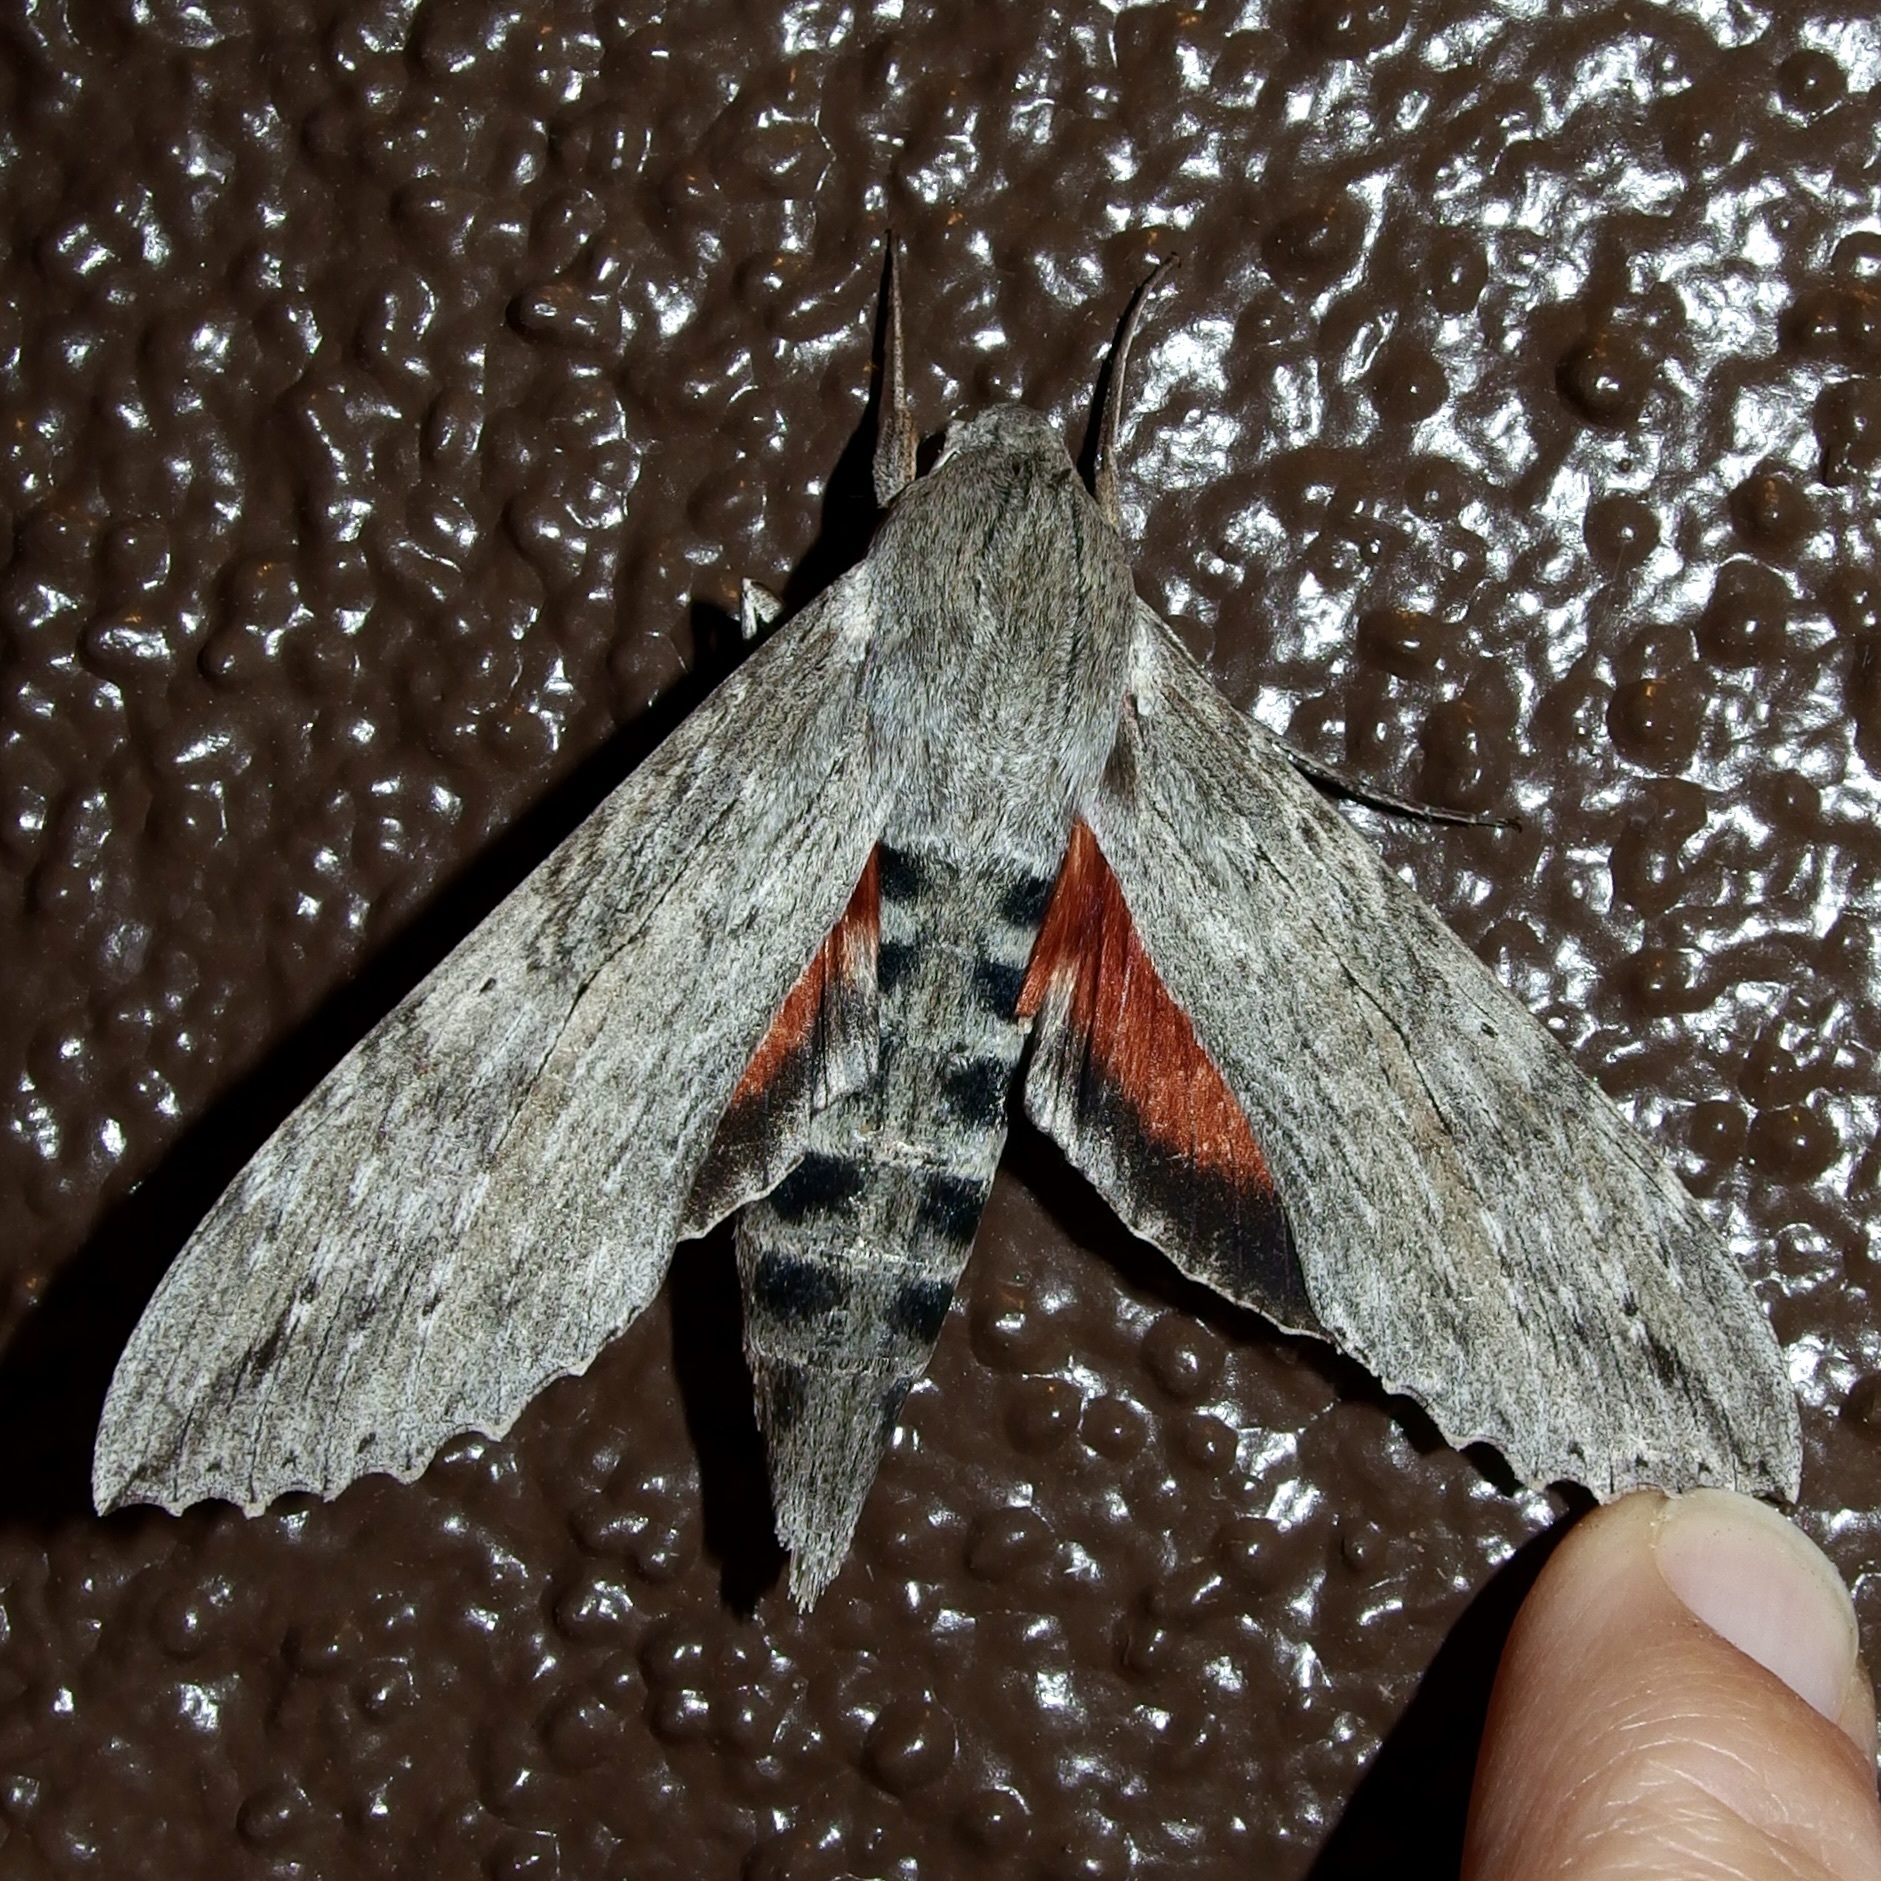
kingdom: Animalia
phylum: Arthropoda
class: Insecta
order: Lepidoptera
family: Sphingidae
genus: Erinnyis
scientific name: Erinnyis ello
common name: Ello sphinx
